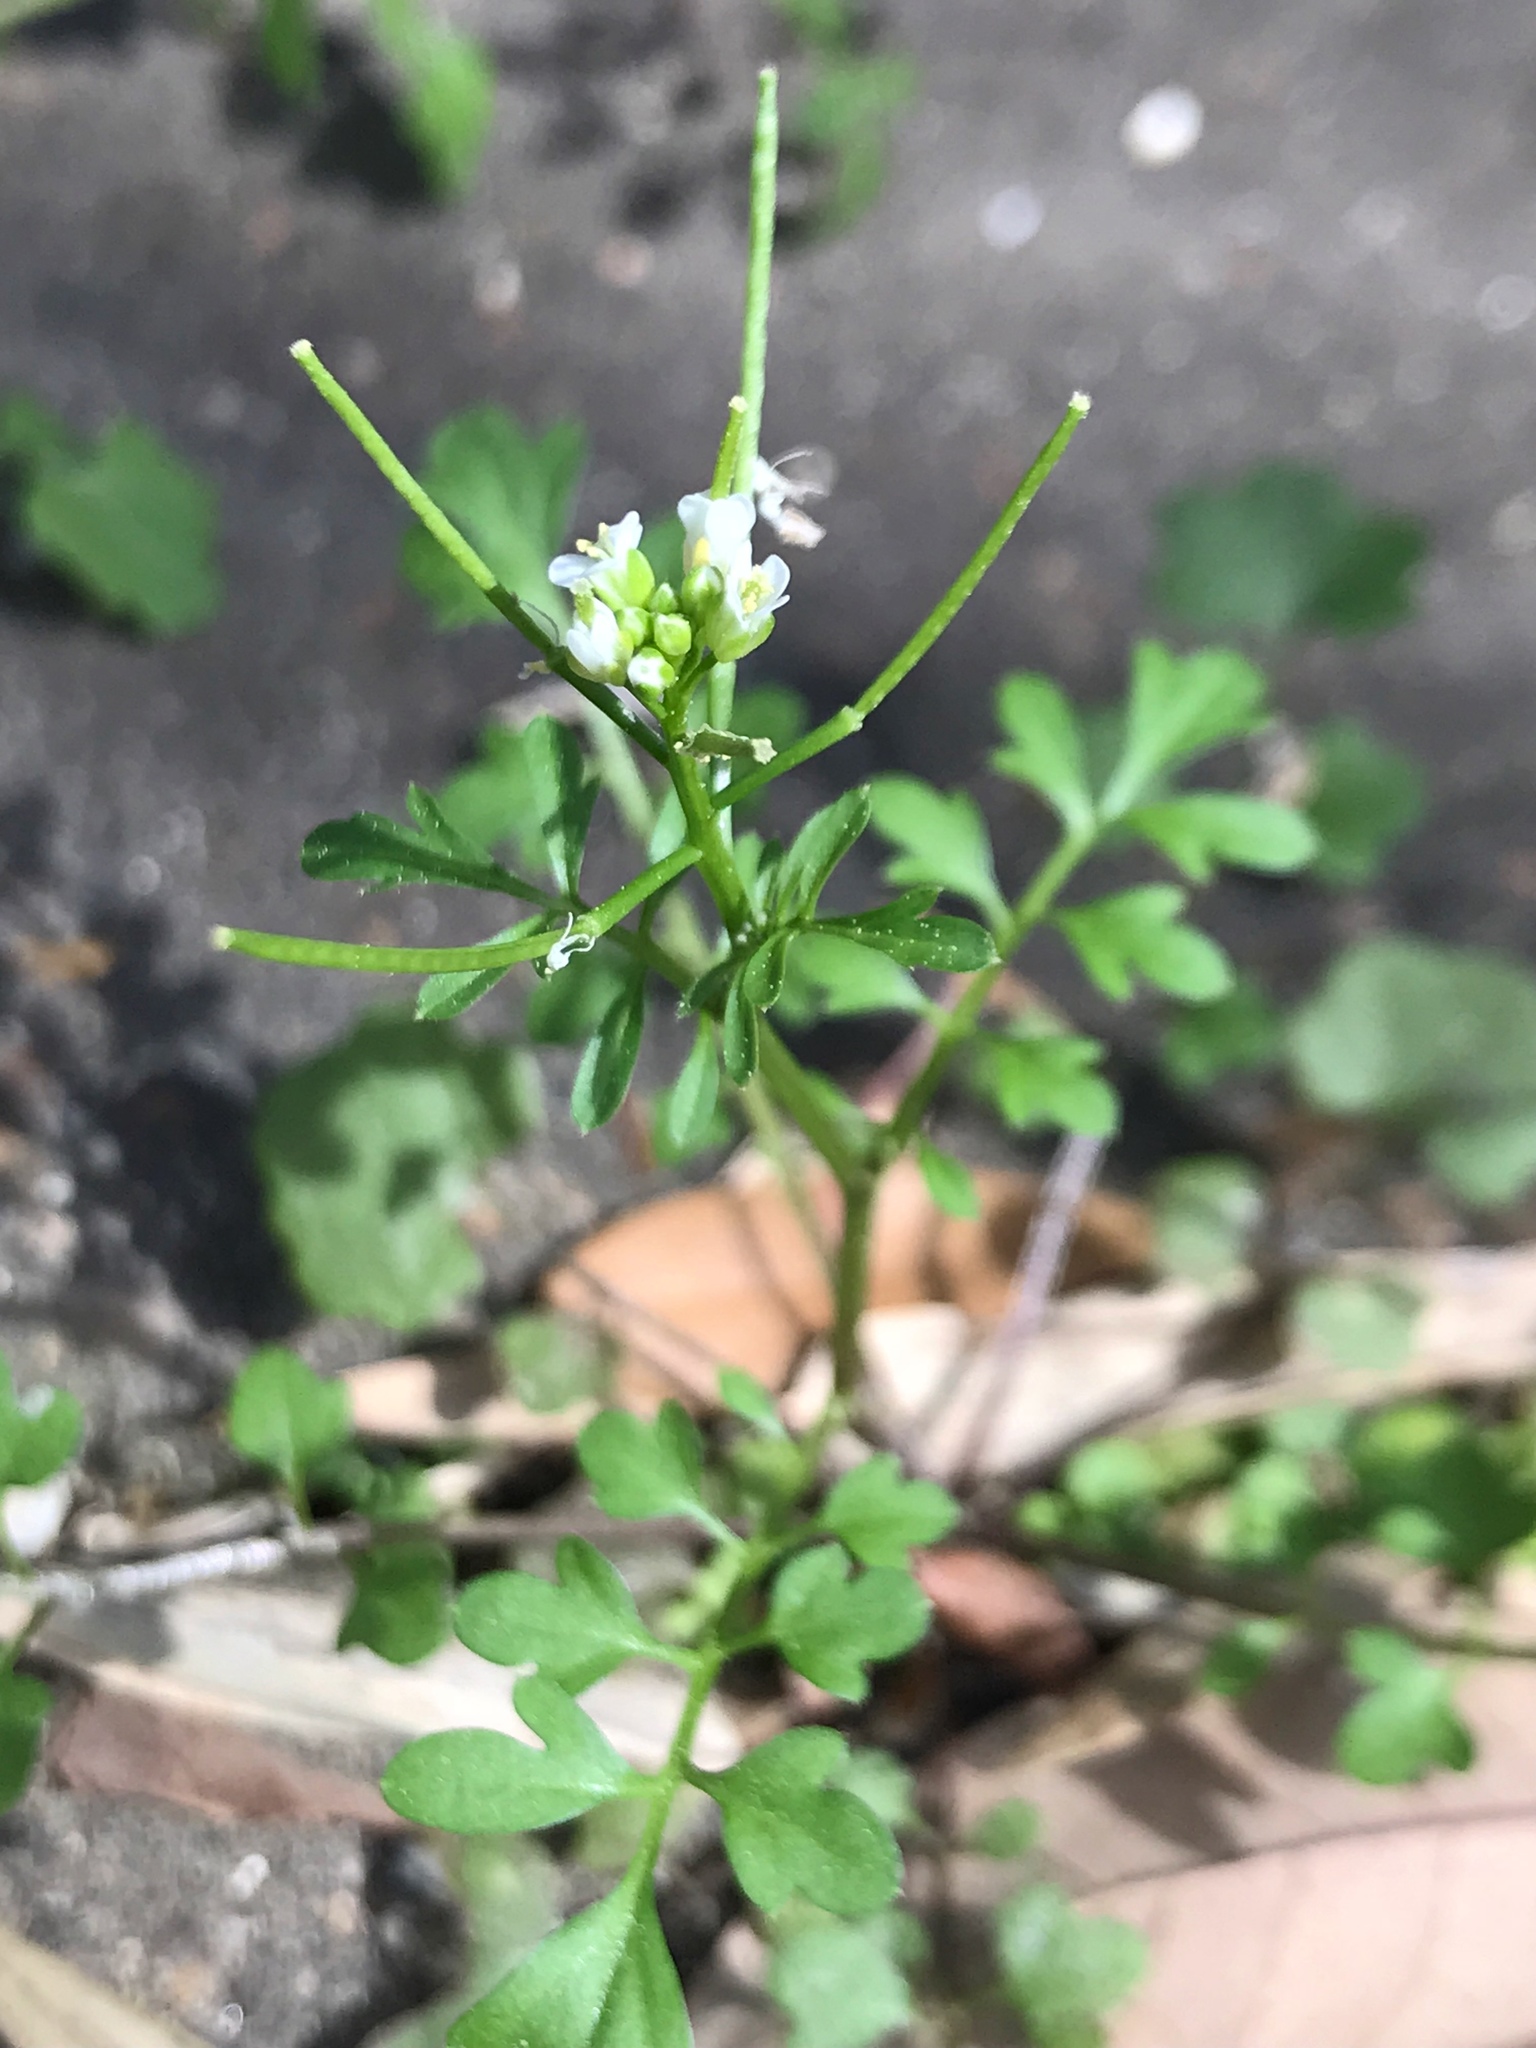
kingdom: Plantae
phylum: Tracheophyta
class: Magnoliopsida
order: Brassicales
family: Brassicaceae
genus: Cardamine
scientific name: Cardamine occulta
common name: Asian wavy bittercress
